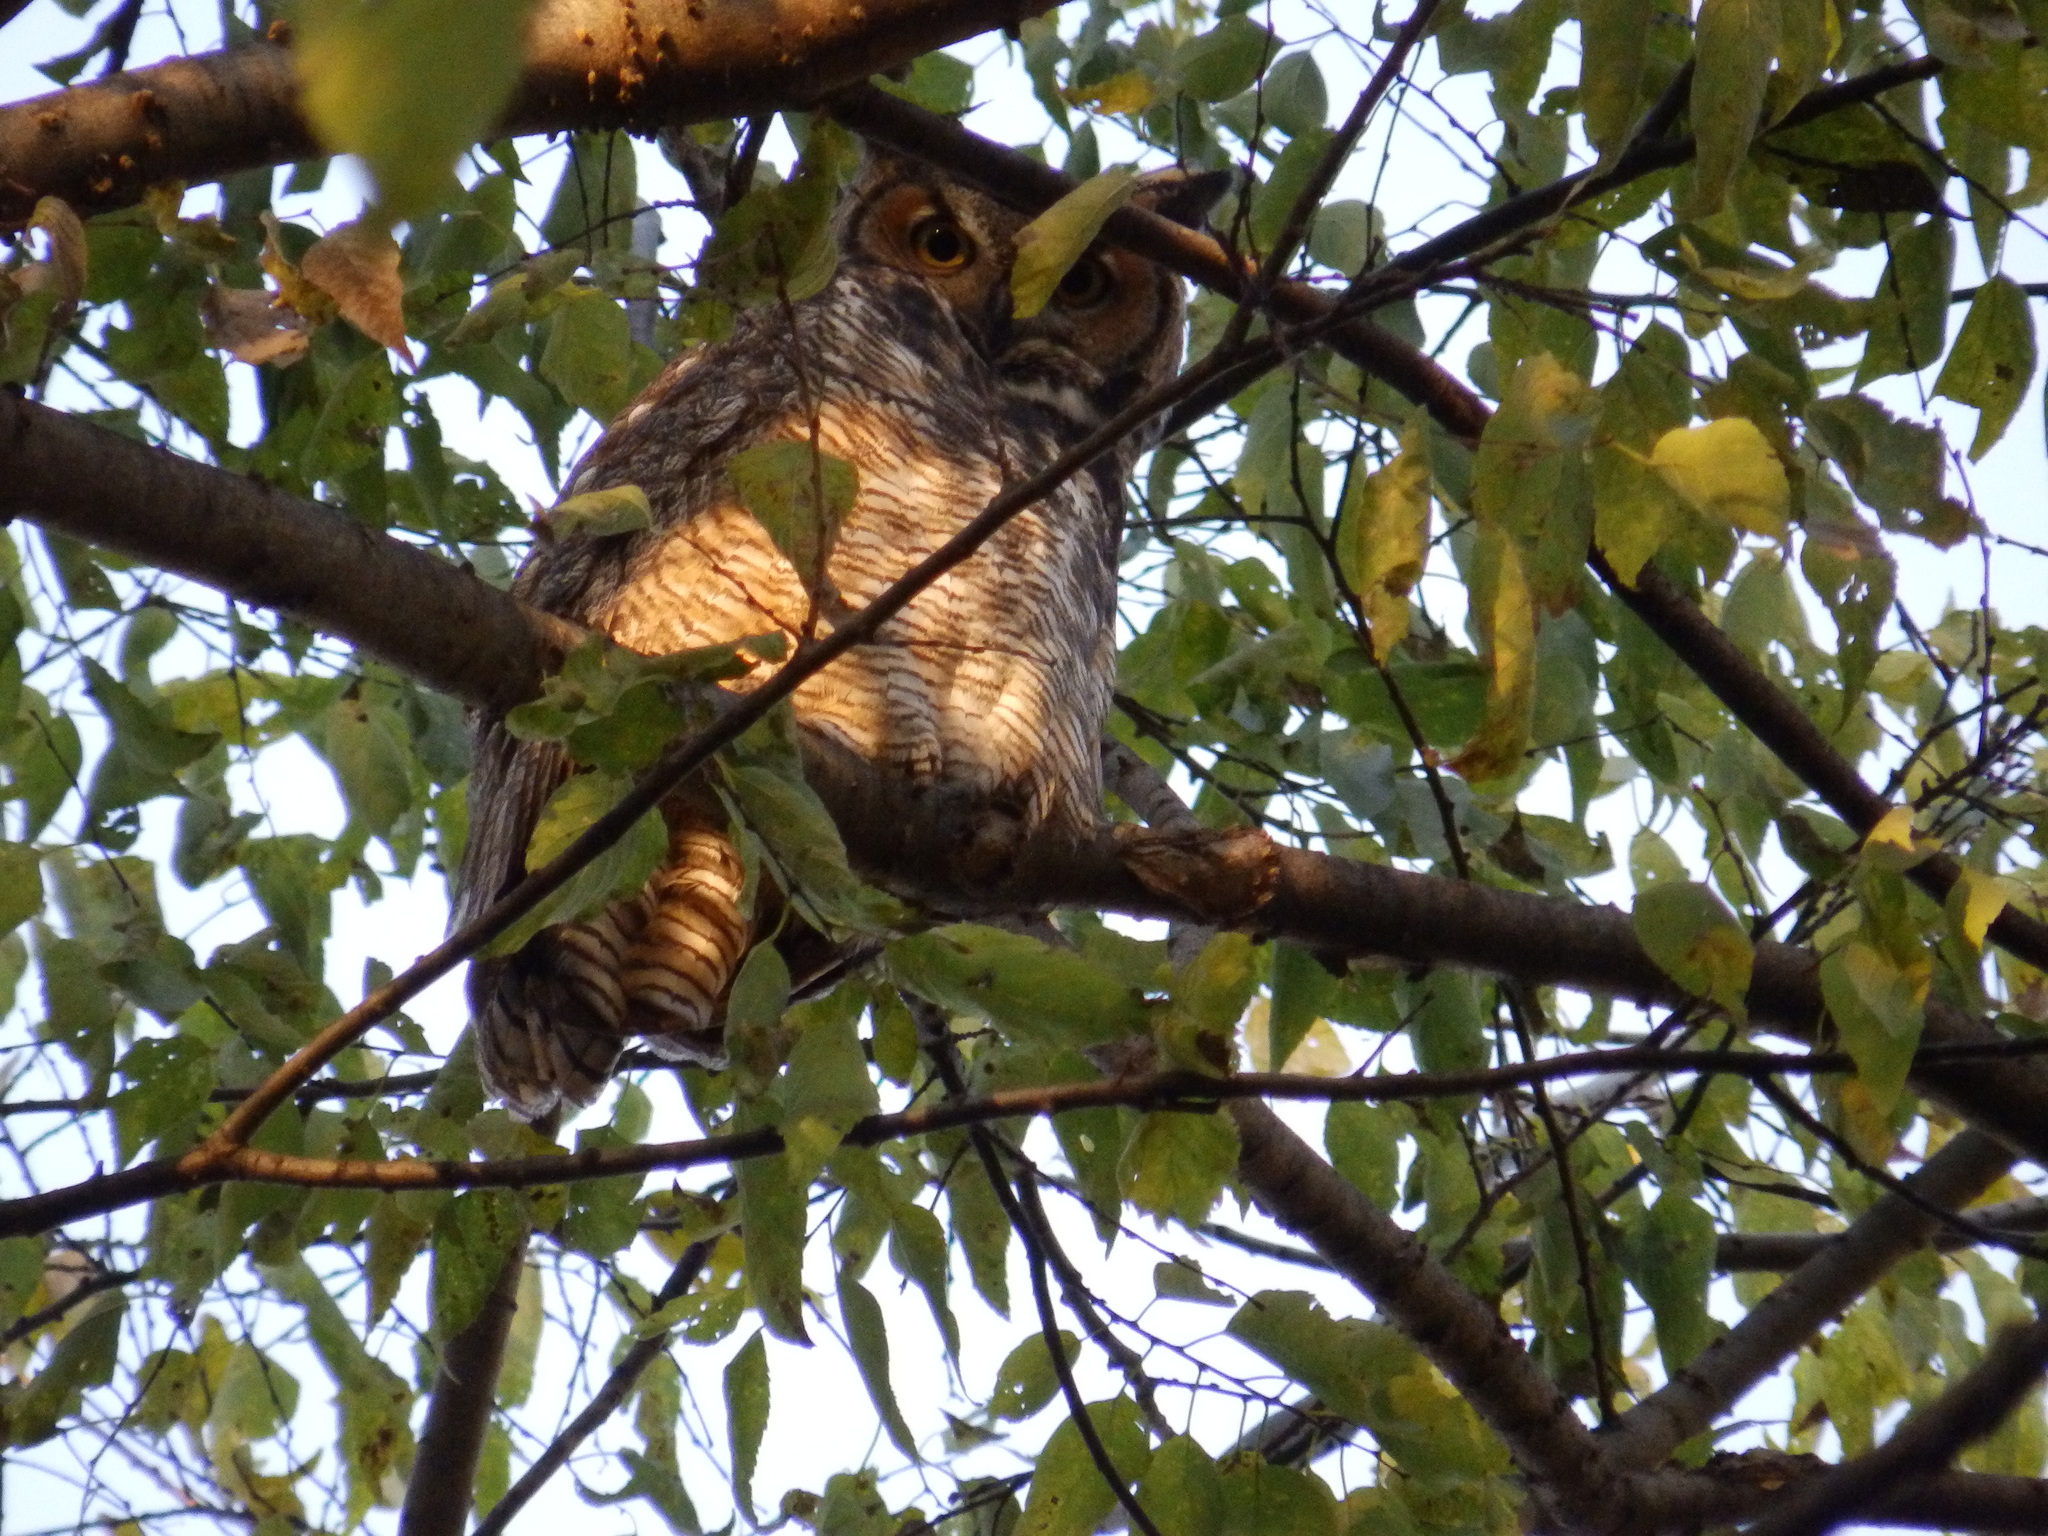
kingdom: Animalia
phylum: Chordata
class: Aves
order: Strigiformes
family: Strigidae
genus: Bubo
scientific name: Bubo virginianus
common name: Great horned owl
